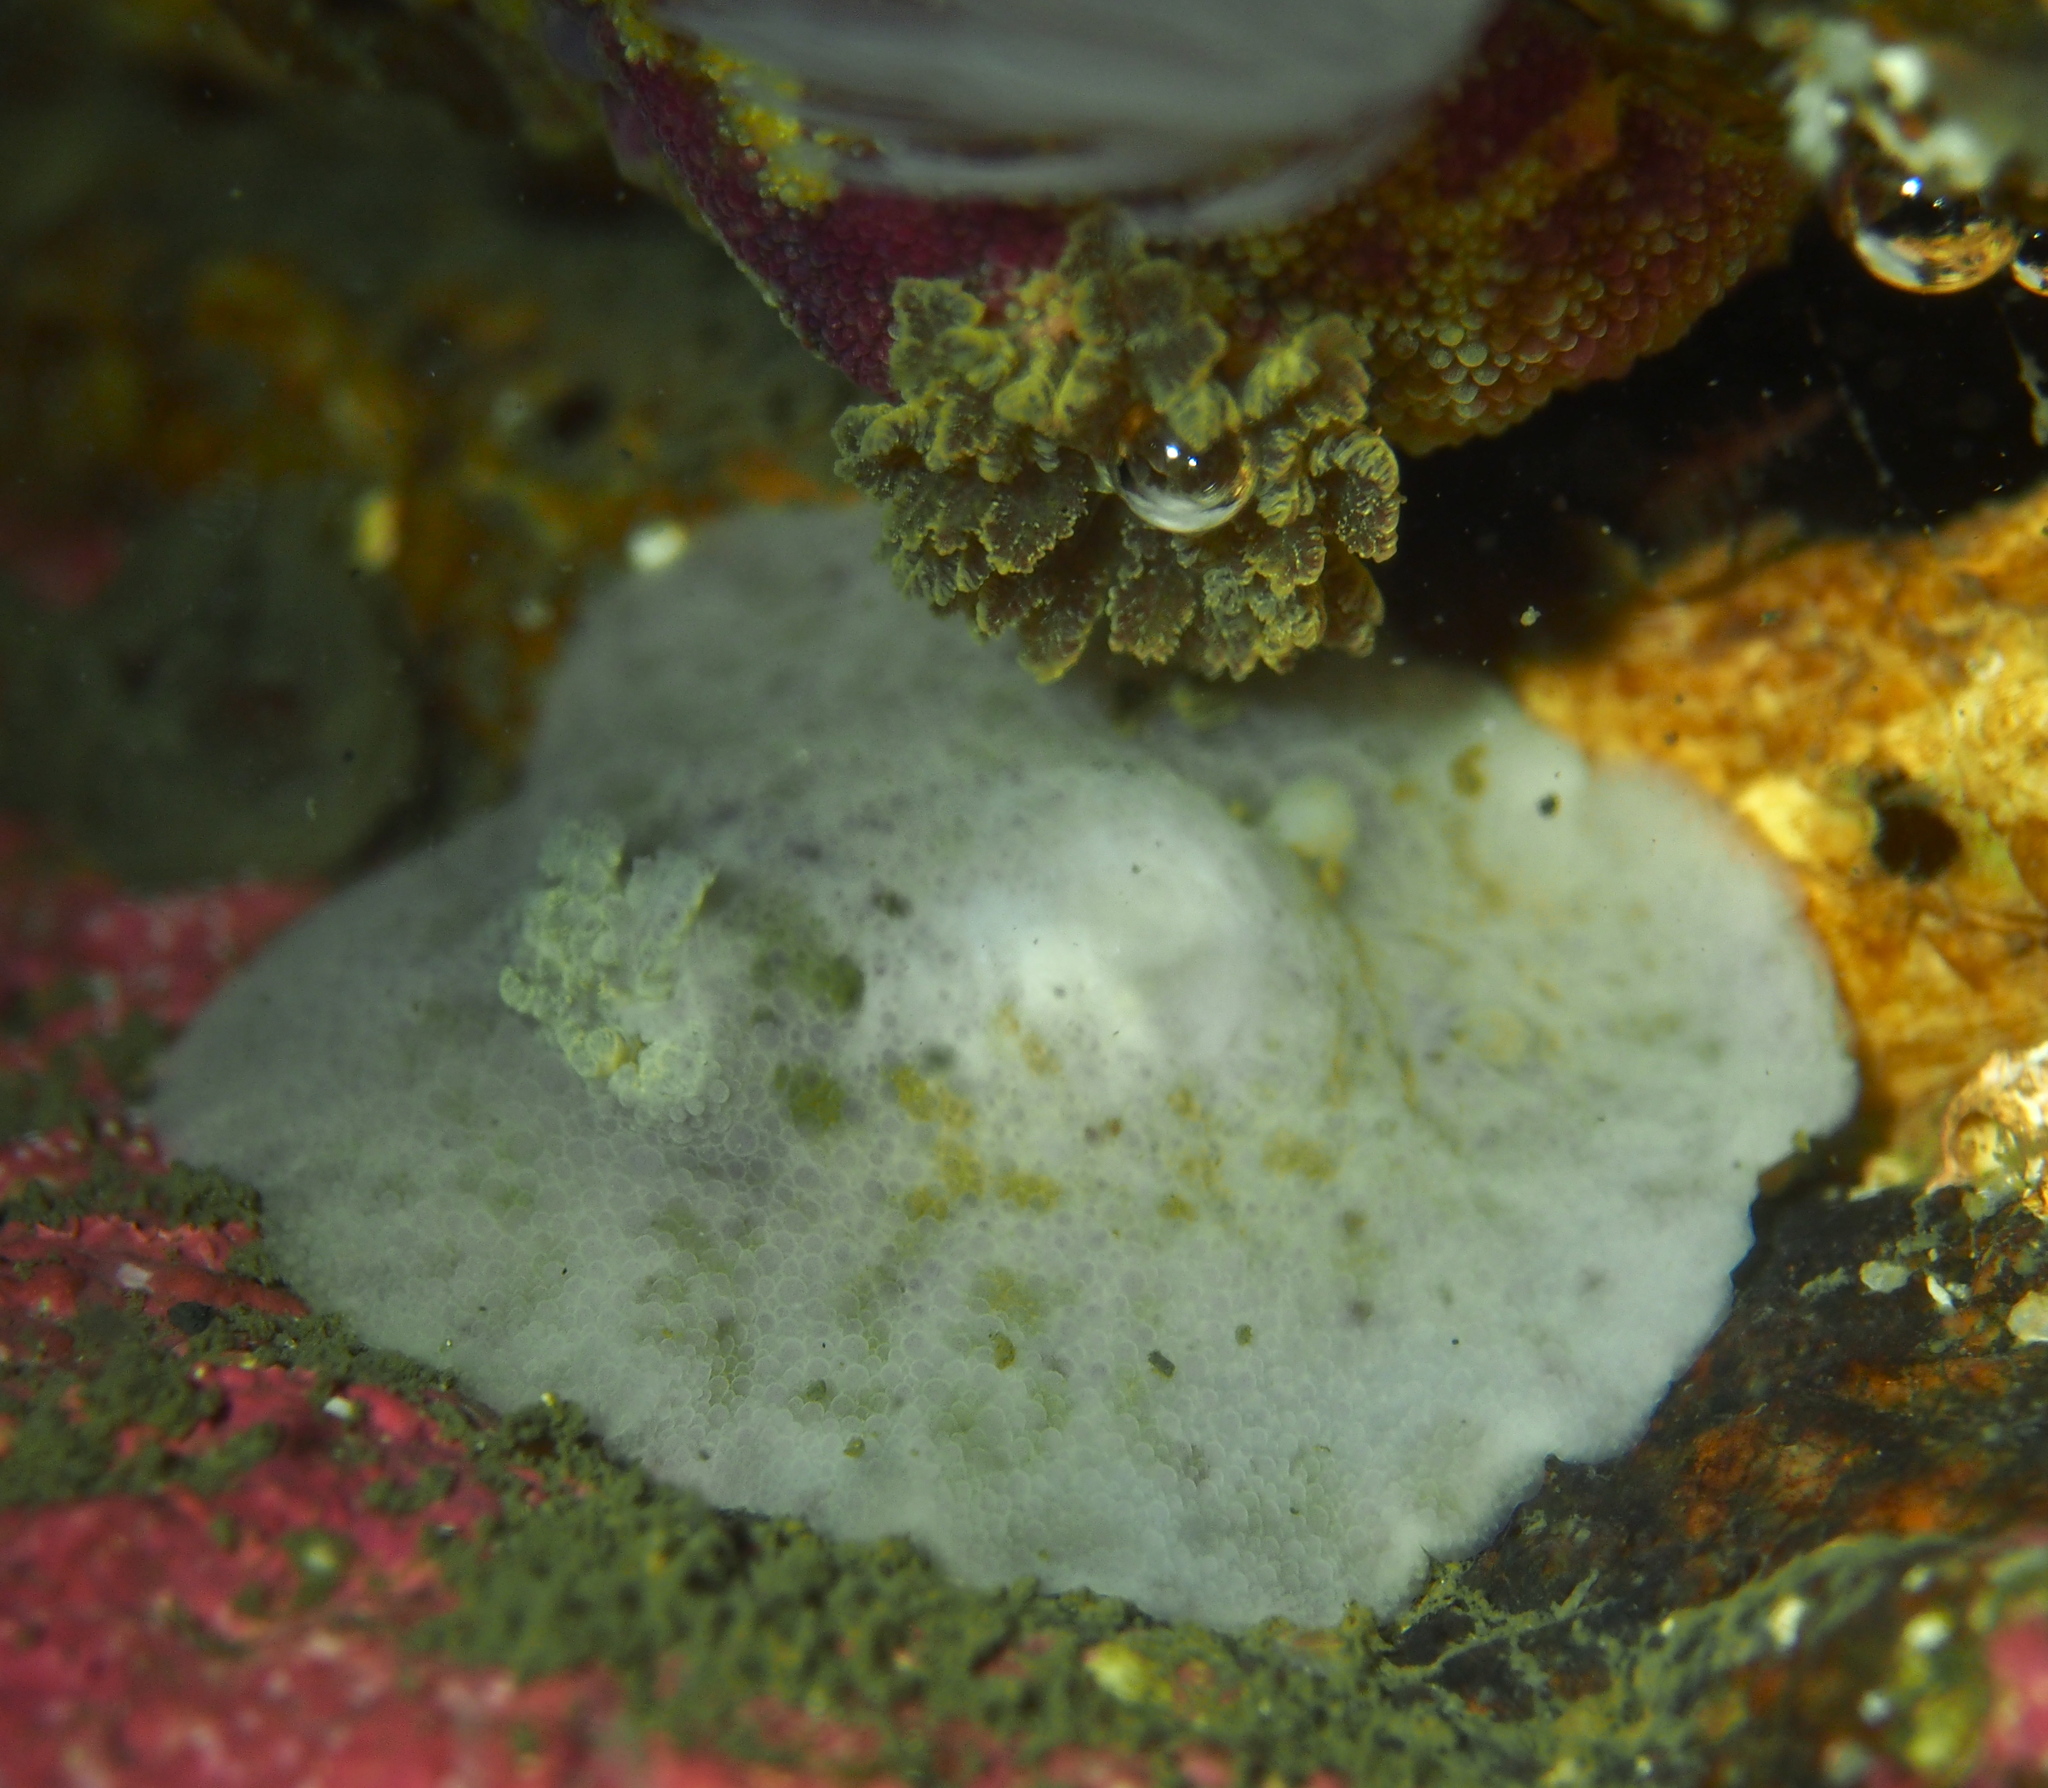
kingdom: Animalia
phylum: Mollusca
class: Gastropoda
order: Nudibranchia
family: Dorididae
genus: Doris
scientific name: Doris pseudoargus
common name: Sea lemon
